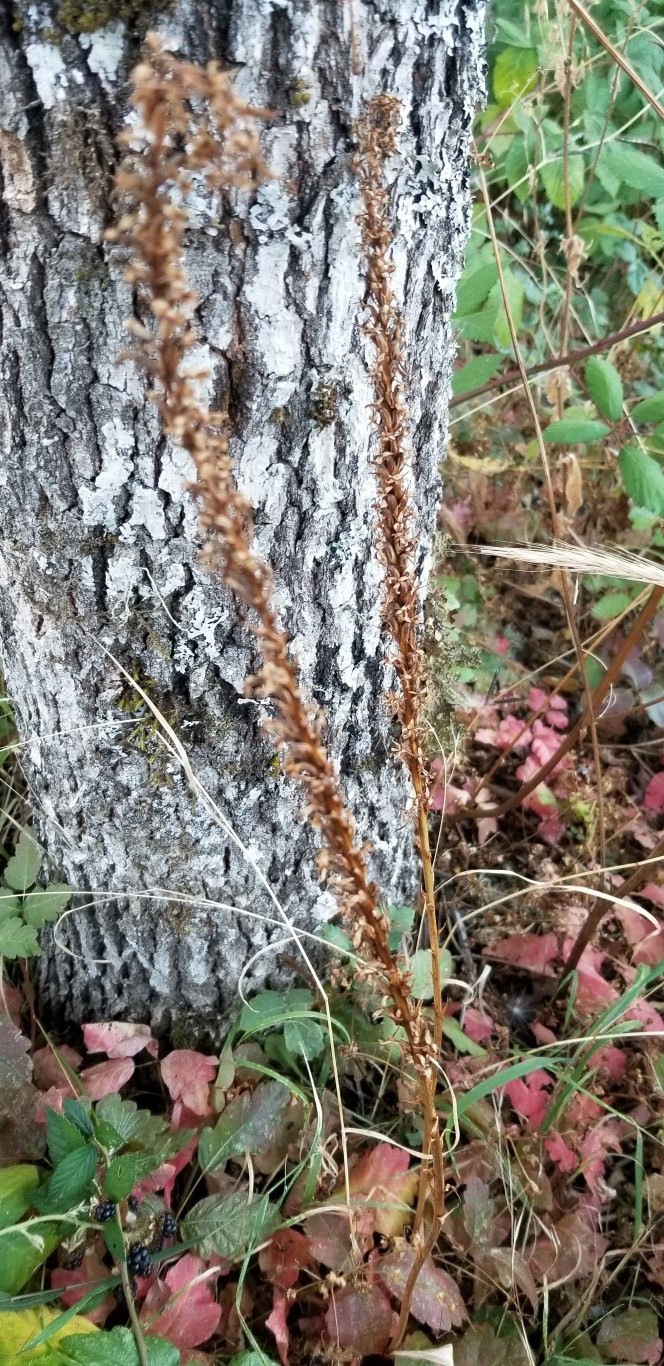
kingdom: Plantae
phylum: Tracheophyta
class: Liliopsida
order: Asparagales
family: Orchidaceae
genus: Platanthera
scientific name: Platanthera elegans
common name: Coast piperia
